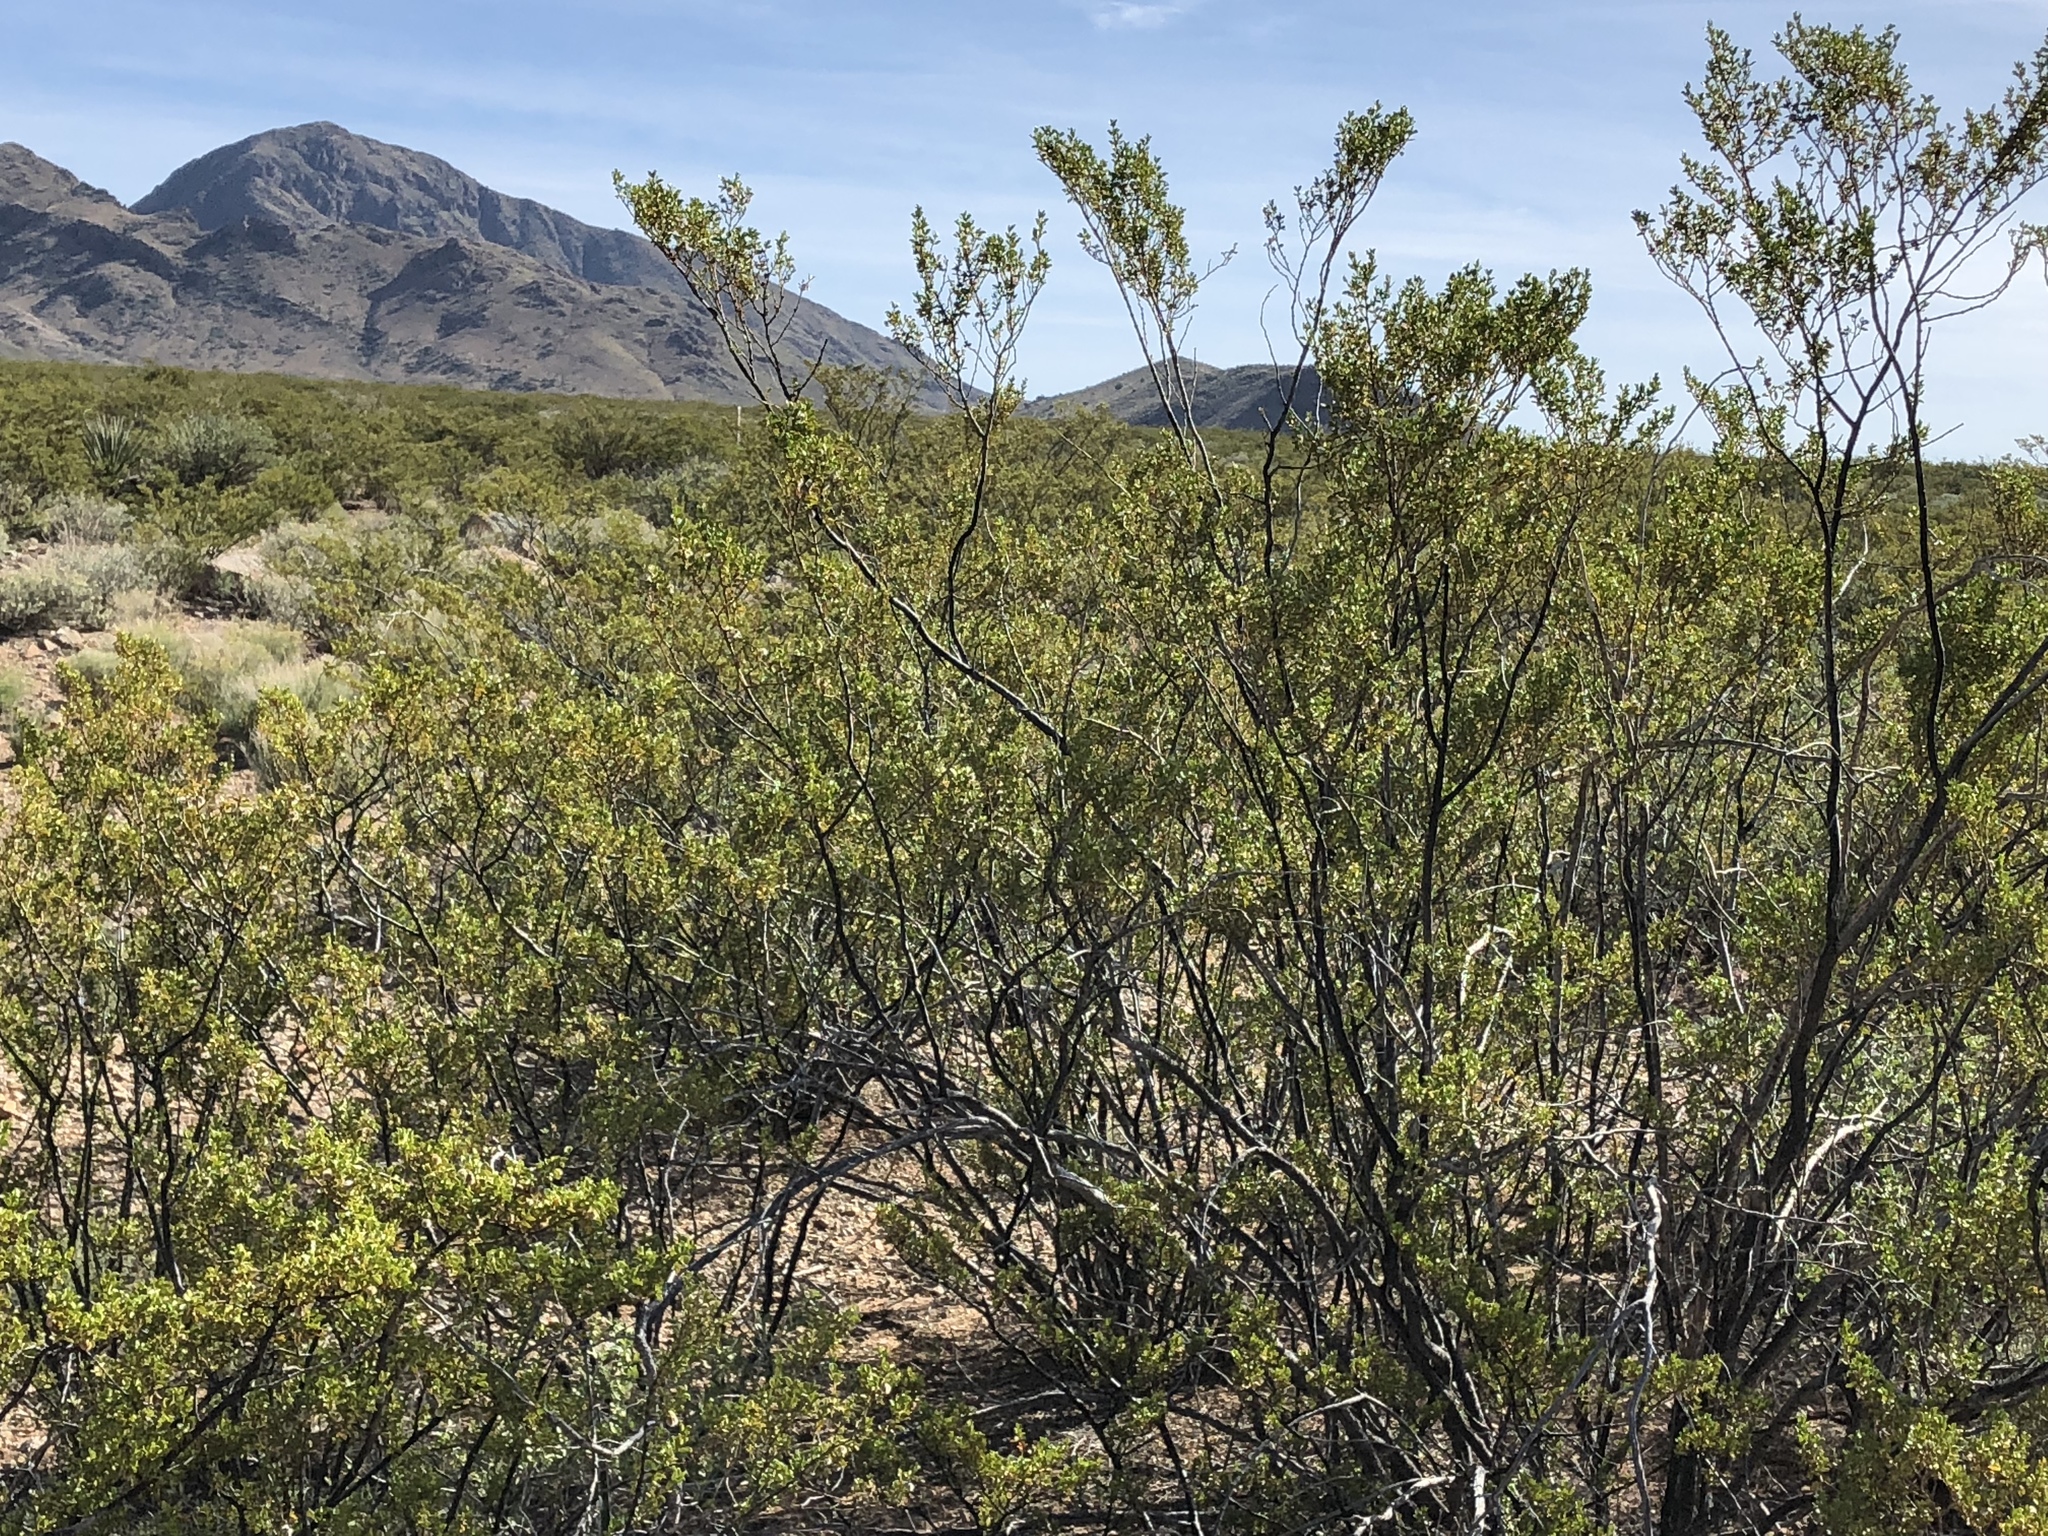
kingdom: Plantae
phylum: Tracheophyta
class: Magnoliopsida
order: Zygophyllales
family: Zygophyllaceae
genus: Larrea
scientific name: Larrea tridentata
